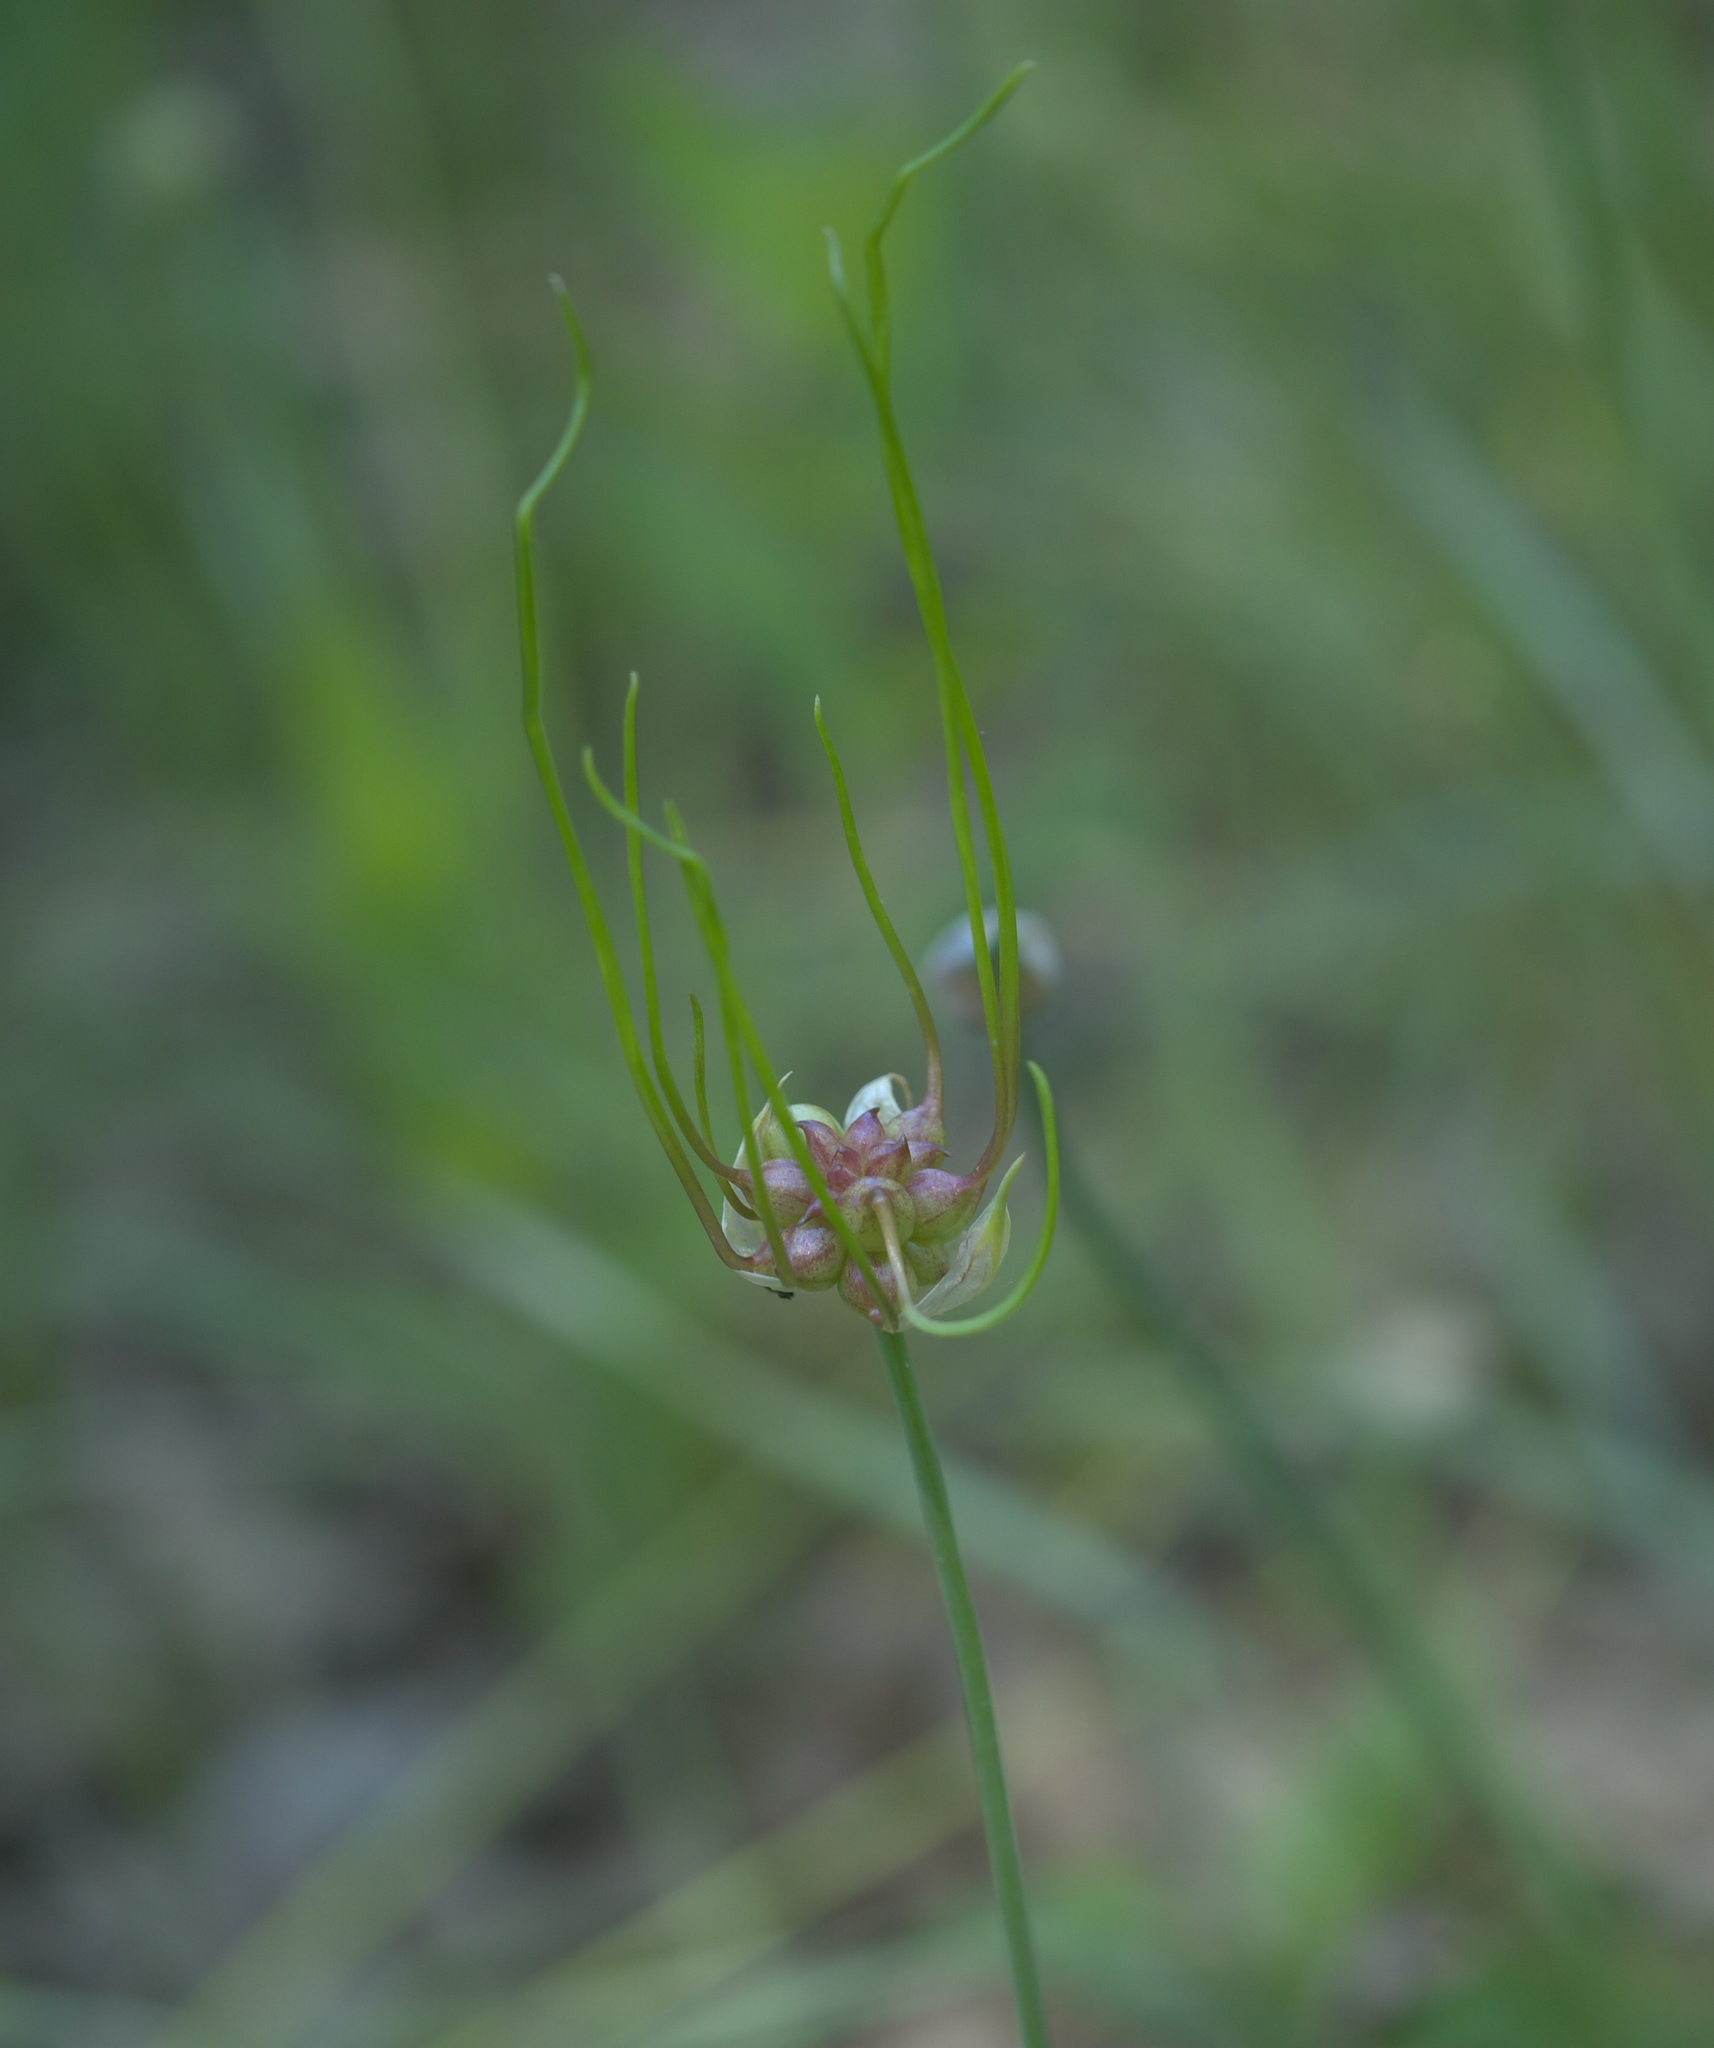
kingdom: Plantae
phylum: Tracheophyta
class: Liliopsida
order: Asparagales
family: Amaryllidaceae
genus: Allium
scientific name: Allium canadense
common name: Meadow garlic
